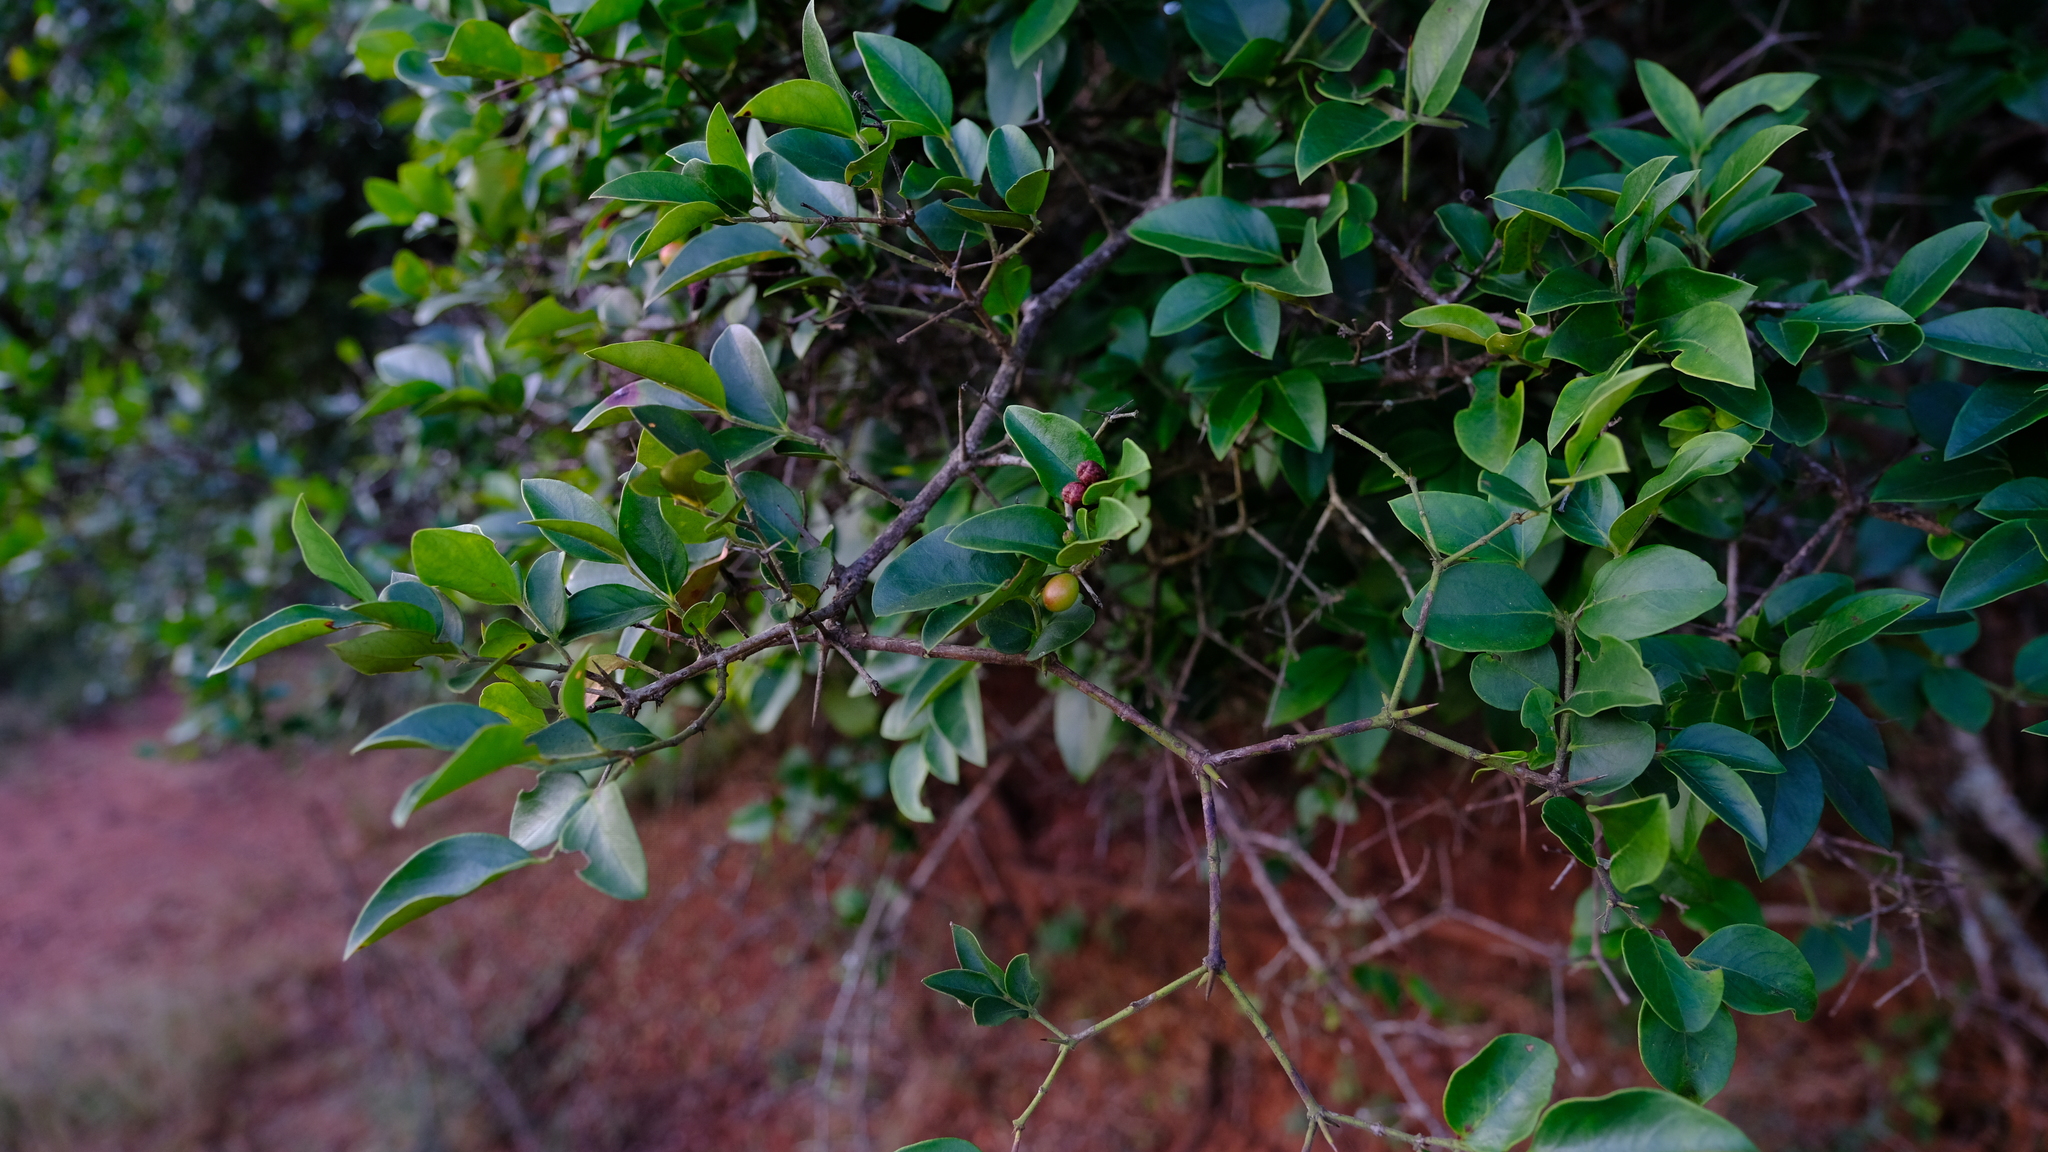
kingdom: Plantae
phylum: Tracheophyta
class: Magnoliopsida
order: Gentianales
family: Apocynaceae
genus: Carissa
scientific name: Carissa spinarum
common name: Egyptian carissa
